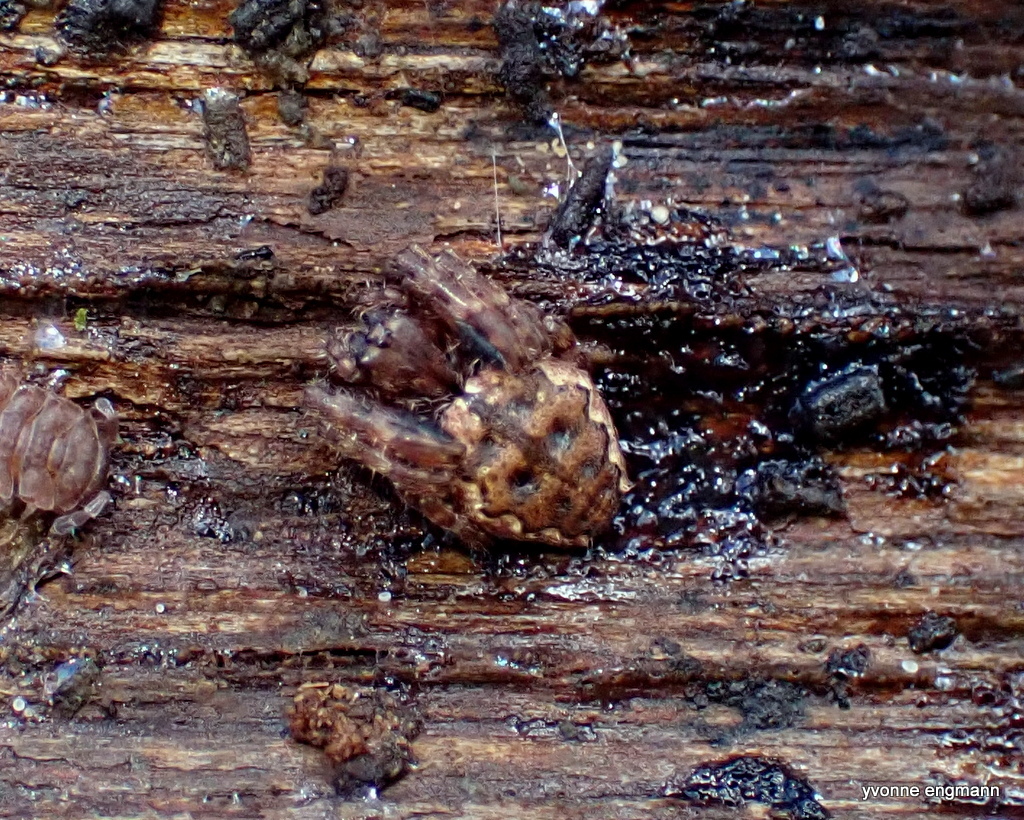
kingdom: Animalia
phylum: Arthropoda
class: Arachnida
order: Araneae
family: Araneidae
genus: Nuctenea
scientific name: Nuctenea umbratica
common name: Toad spider
